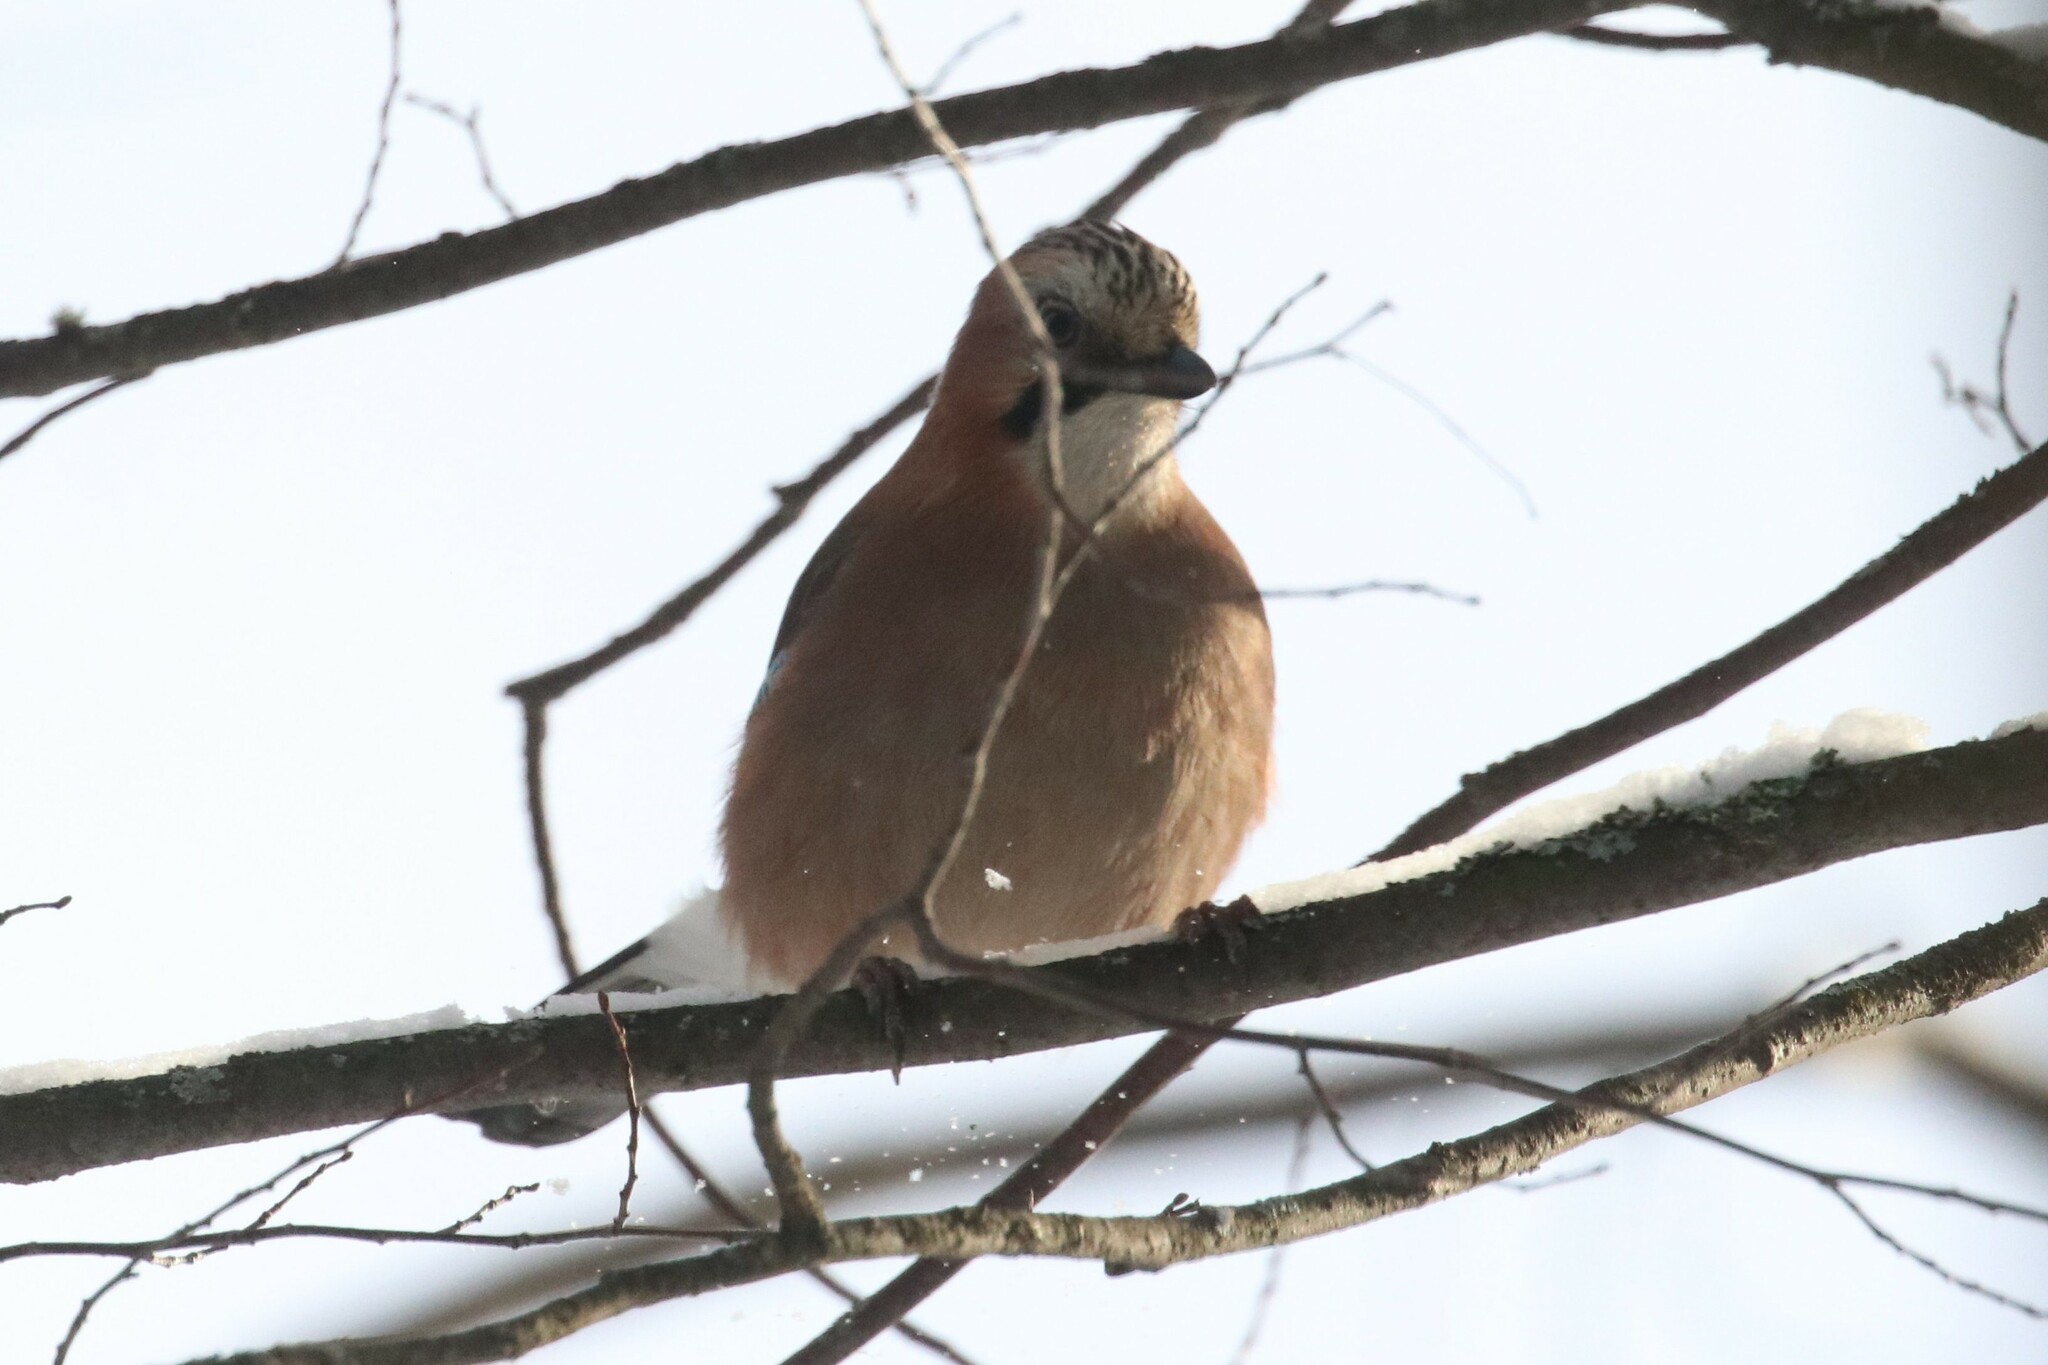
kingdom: Animalia
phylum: Chordata
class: Aves
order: Passeriformes
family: Corvidae
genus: Garrulus
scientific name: Garrulus glandarius
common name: Eurasian jay
